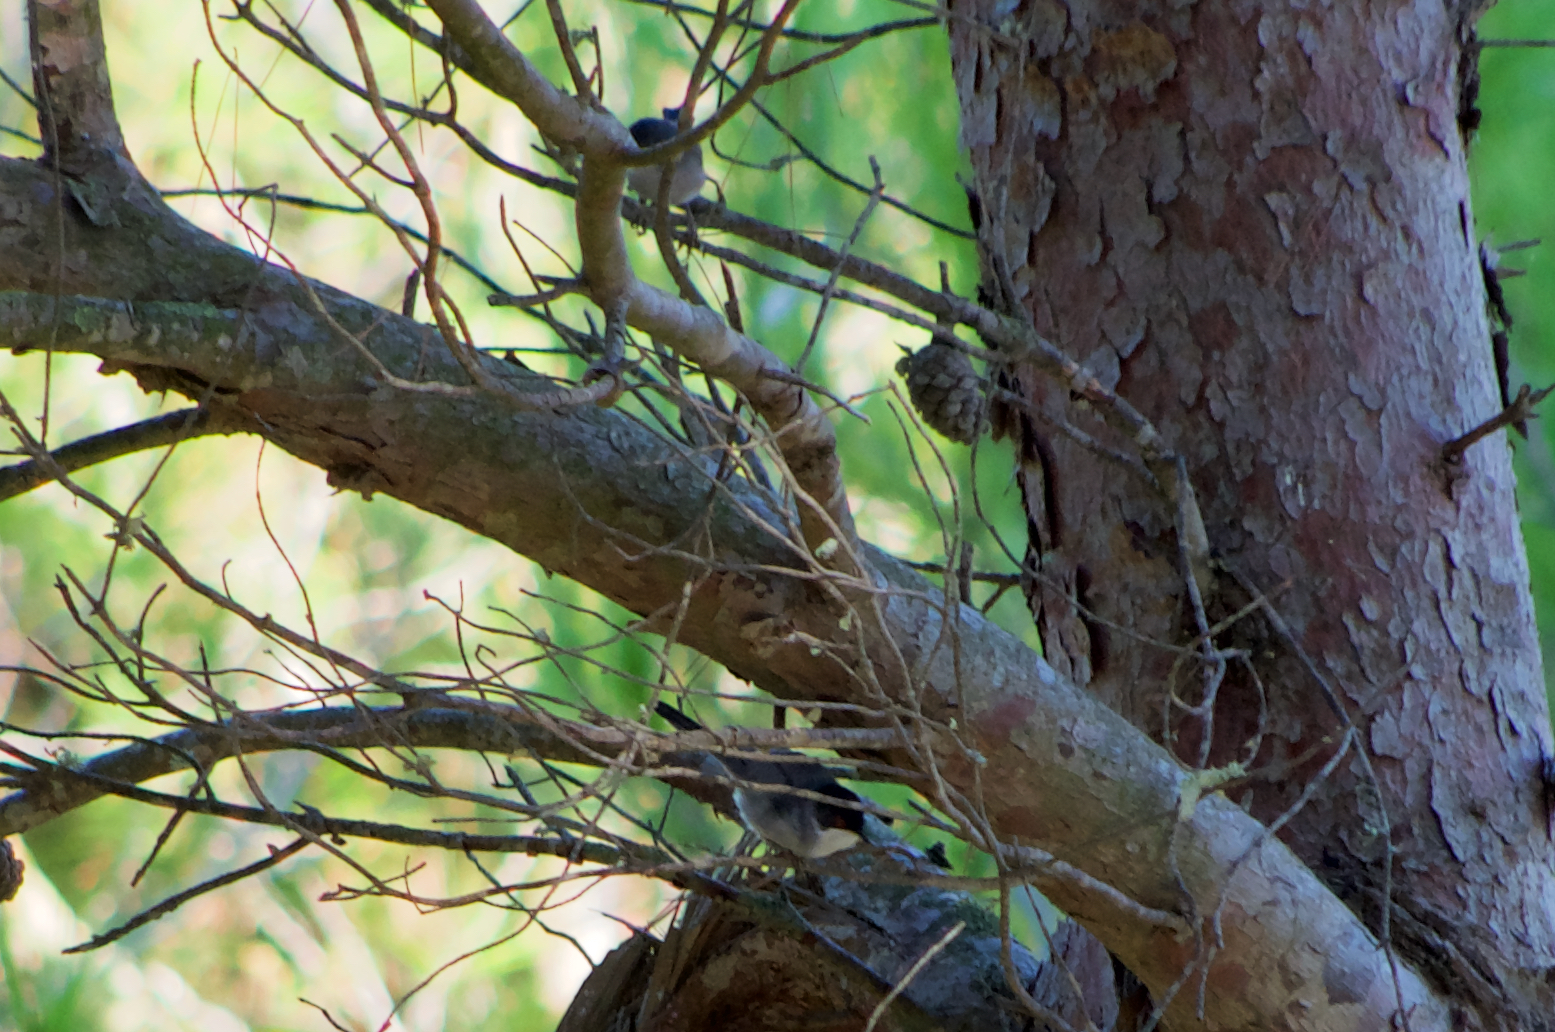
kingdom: Animalia
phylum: Chordata
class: Aves
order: Passeriformes
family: Sylviidae
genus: Curruca
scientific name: Curruca melanocephala
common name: Sardinian warbler
